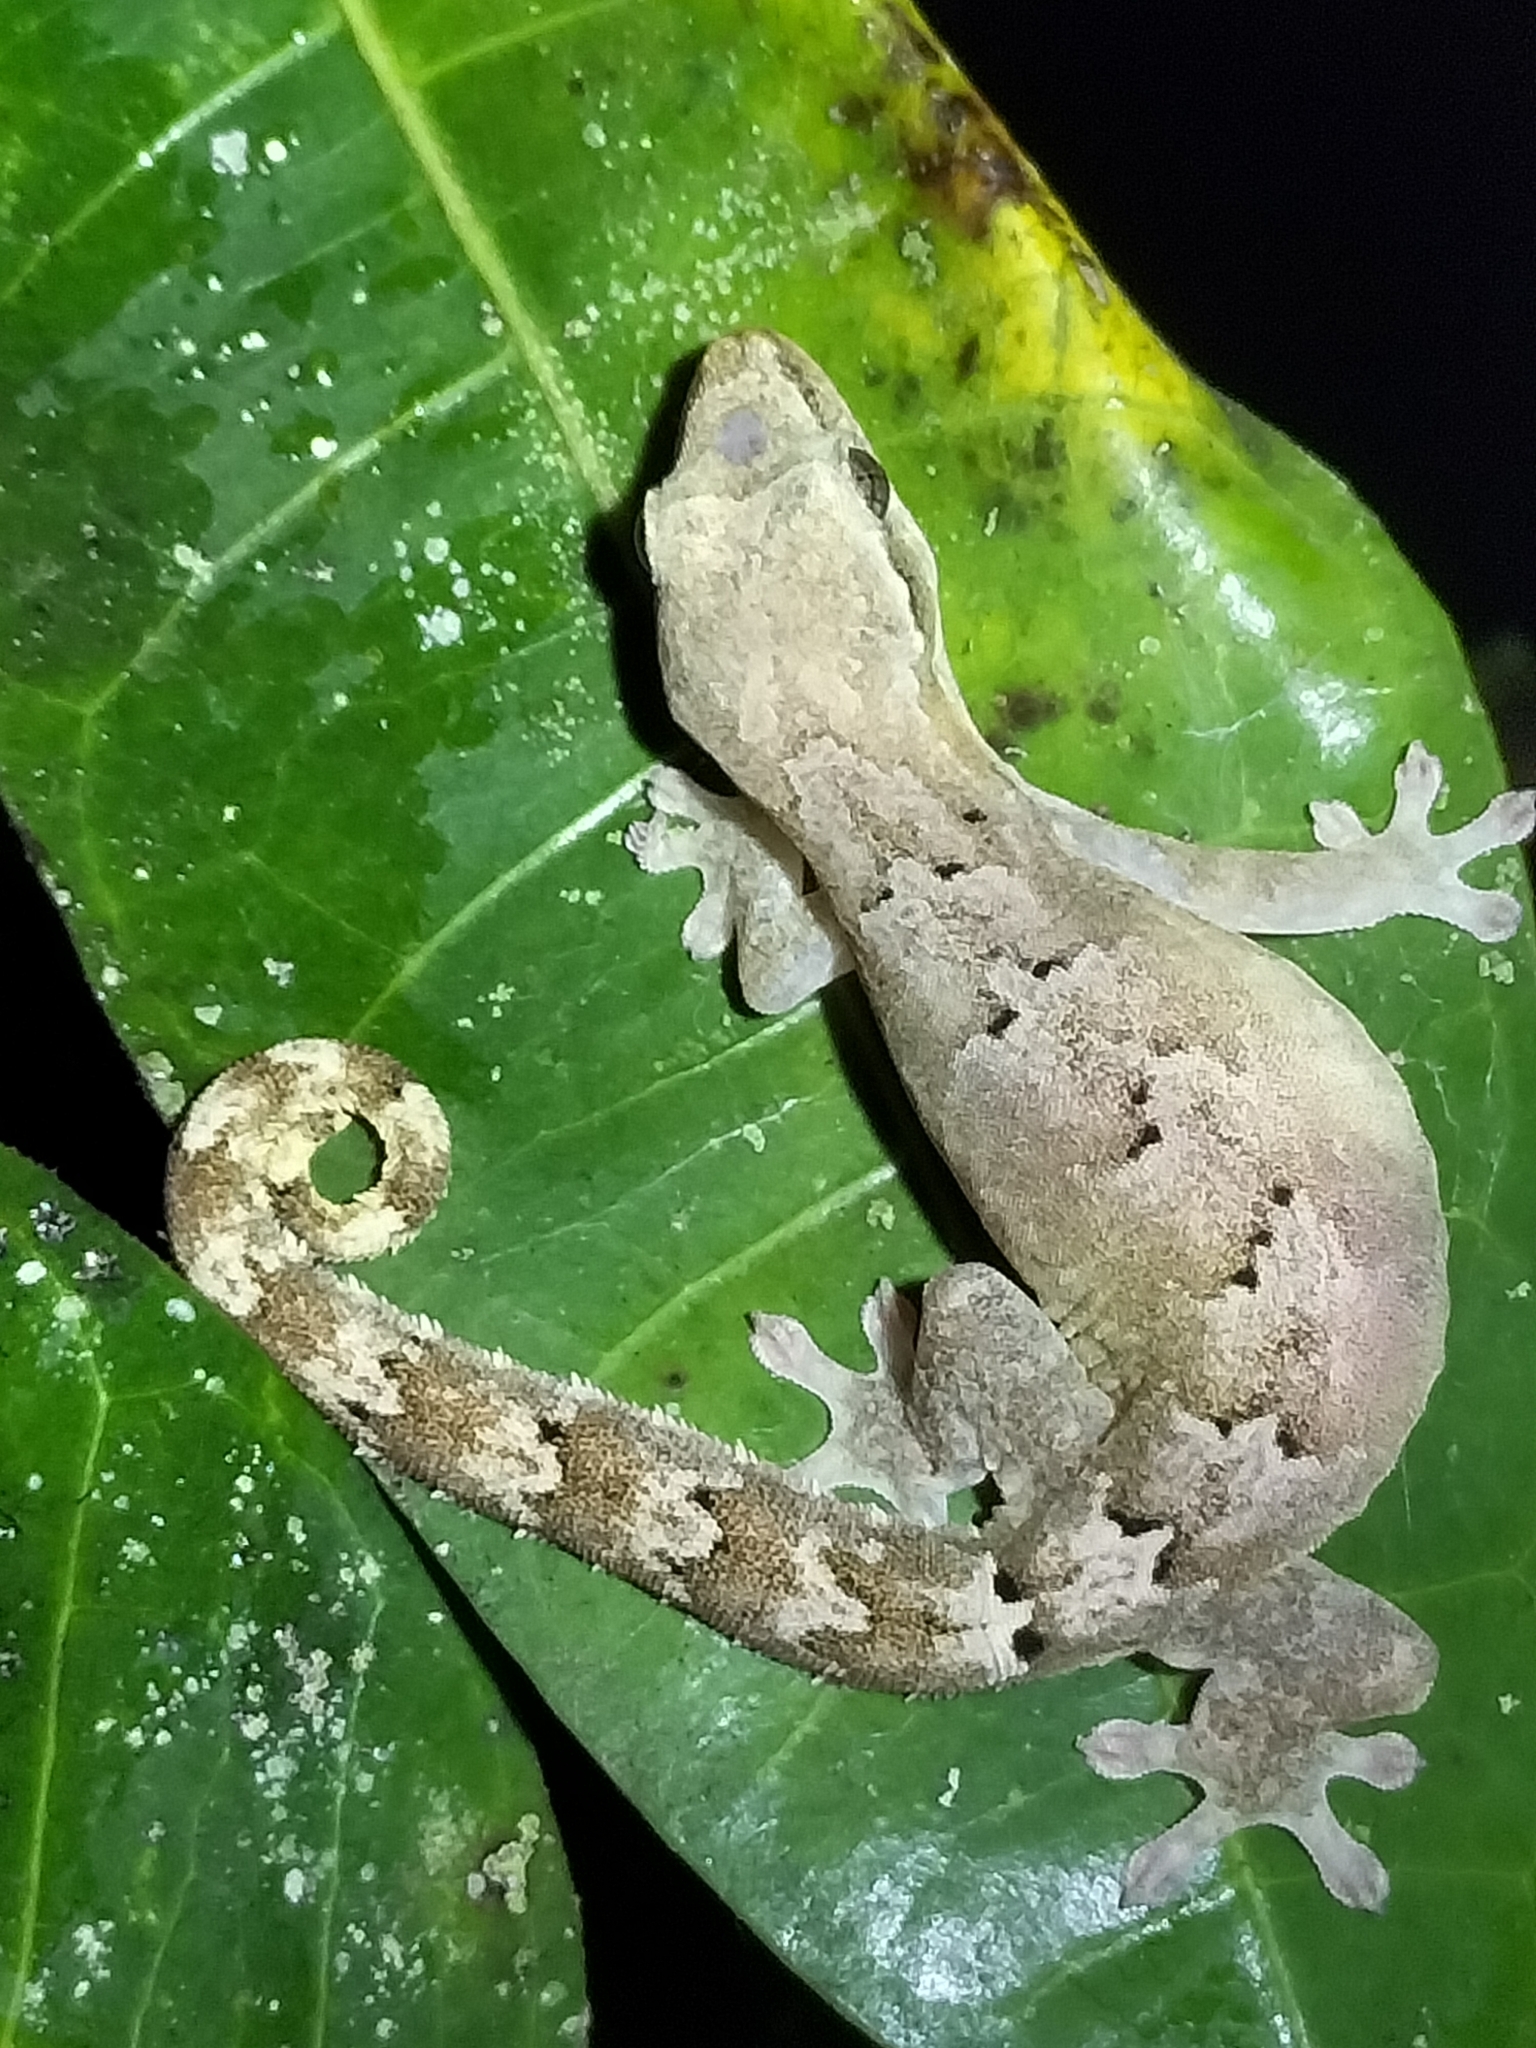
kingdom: Animalia
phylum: Chordata
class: Squamata
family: Gekkonidae
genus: Lepidodactylus
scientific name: Lepidodactylus lugubris
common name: Mourning gecko
